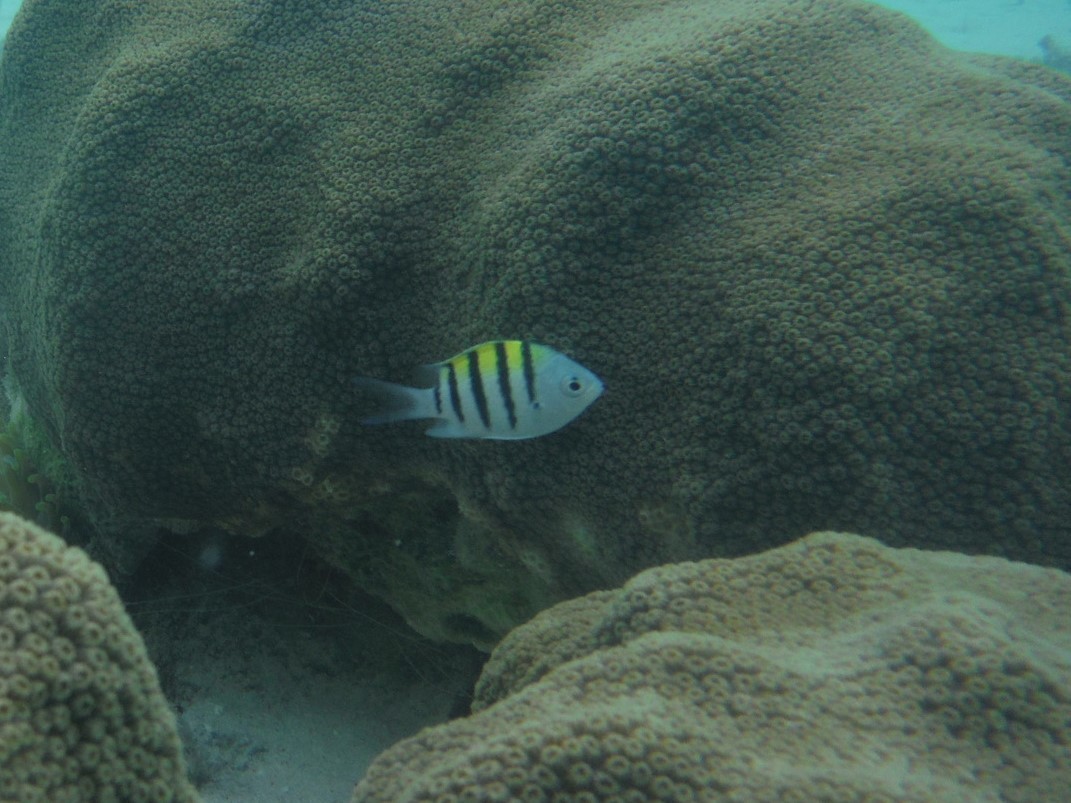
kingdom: Animalia
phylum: Chordata
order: Perciformes
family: Pomacentridae
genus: Abudefduf
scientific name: Abudefduf saxatilis
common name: Sergeant major
